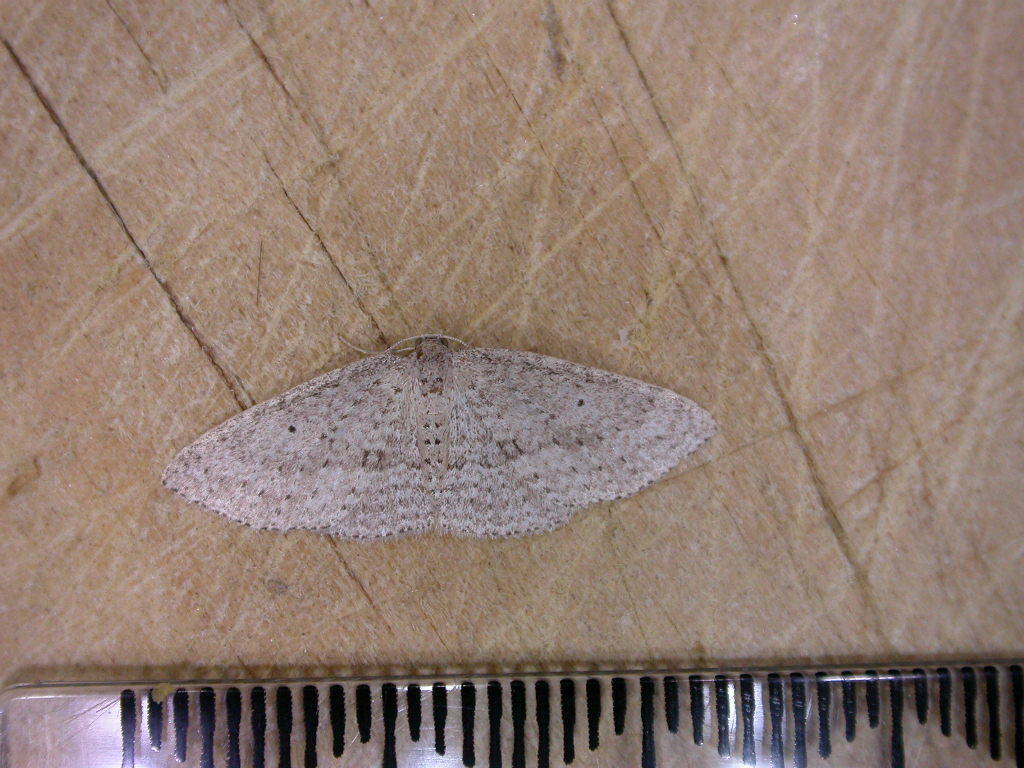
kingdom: Animalia
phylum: Arthropoda
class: Insecta
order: Lepidoptera
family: Geometridae
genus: Poecilasthena
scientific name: Poecilasthena schistaria
